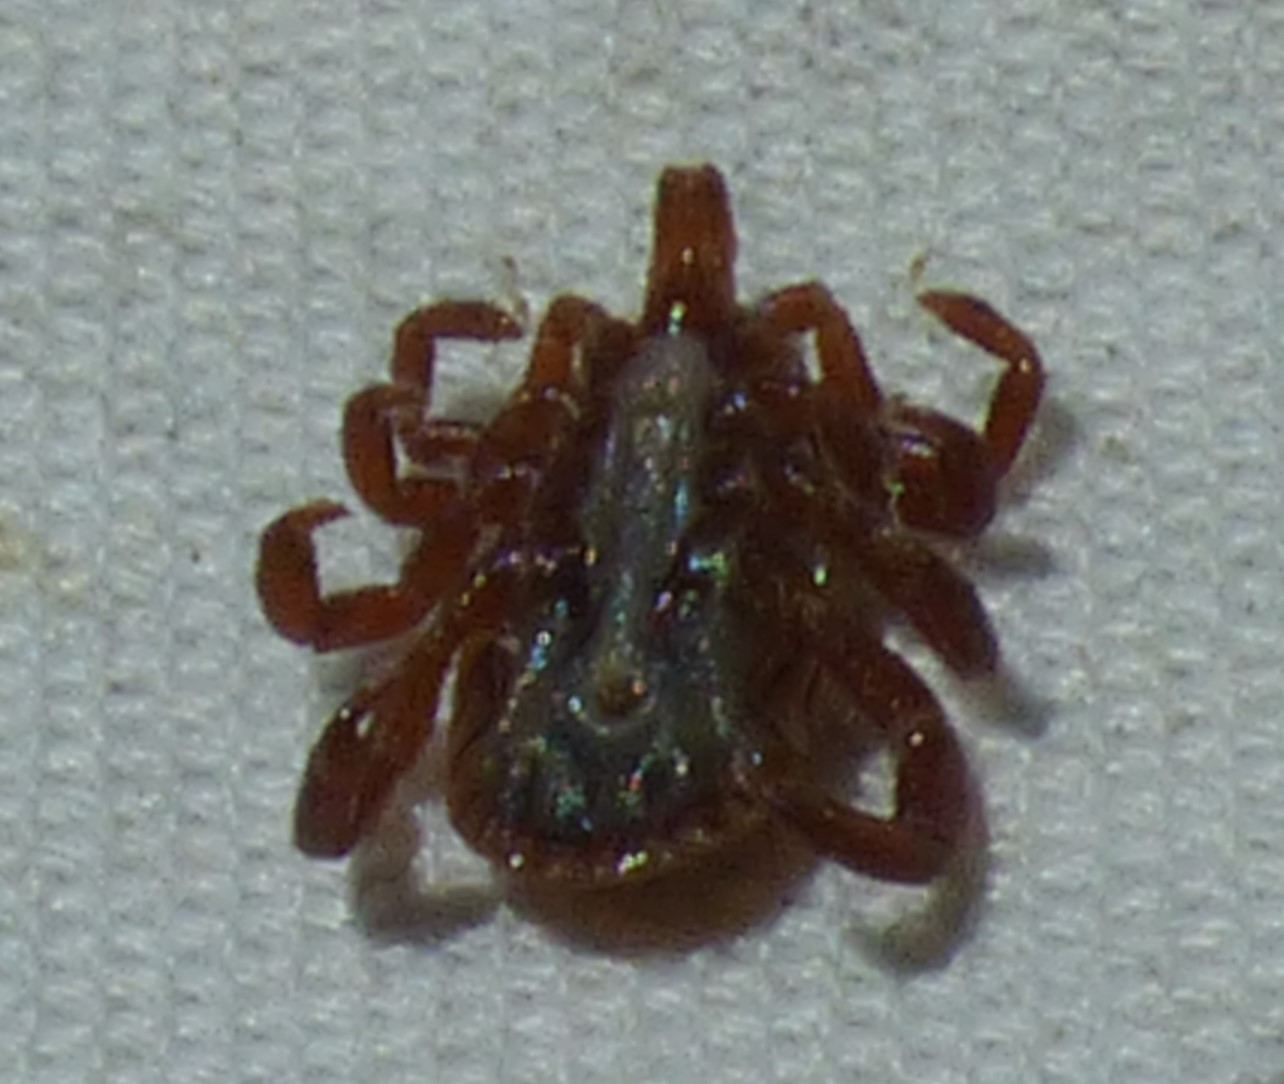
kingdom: Animalia
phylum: Arthropoda
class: Arachnida
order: Ixodida
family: Ixodidae
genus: Amblyomma
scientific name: Amblyomma maculatum
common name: Gulf coast tick
